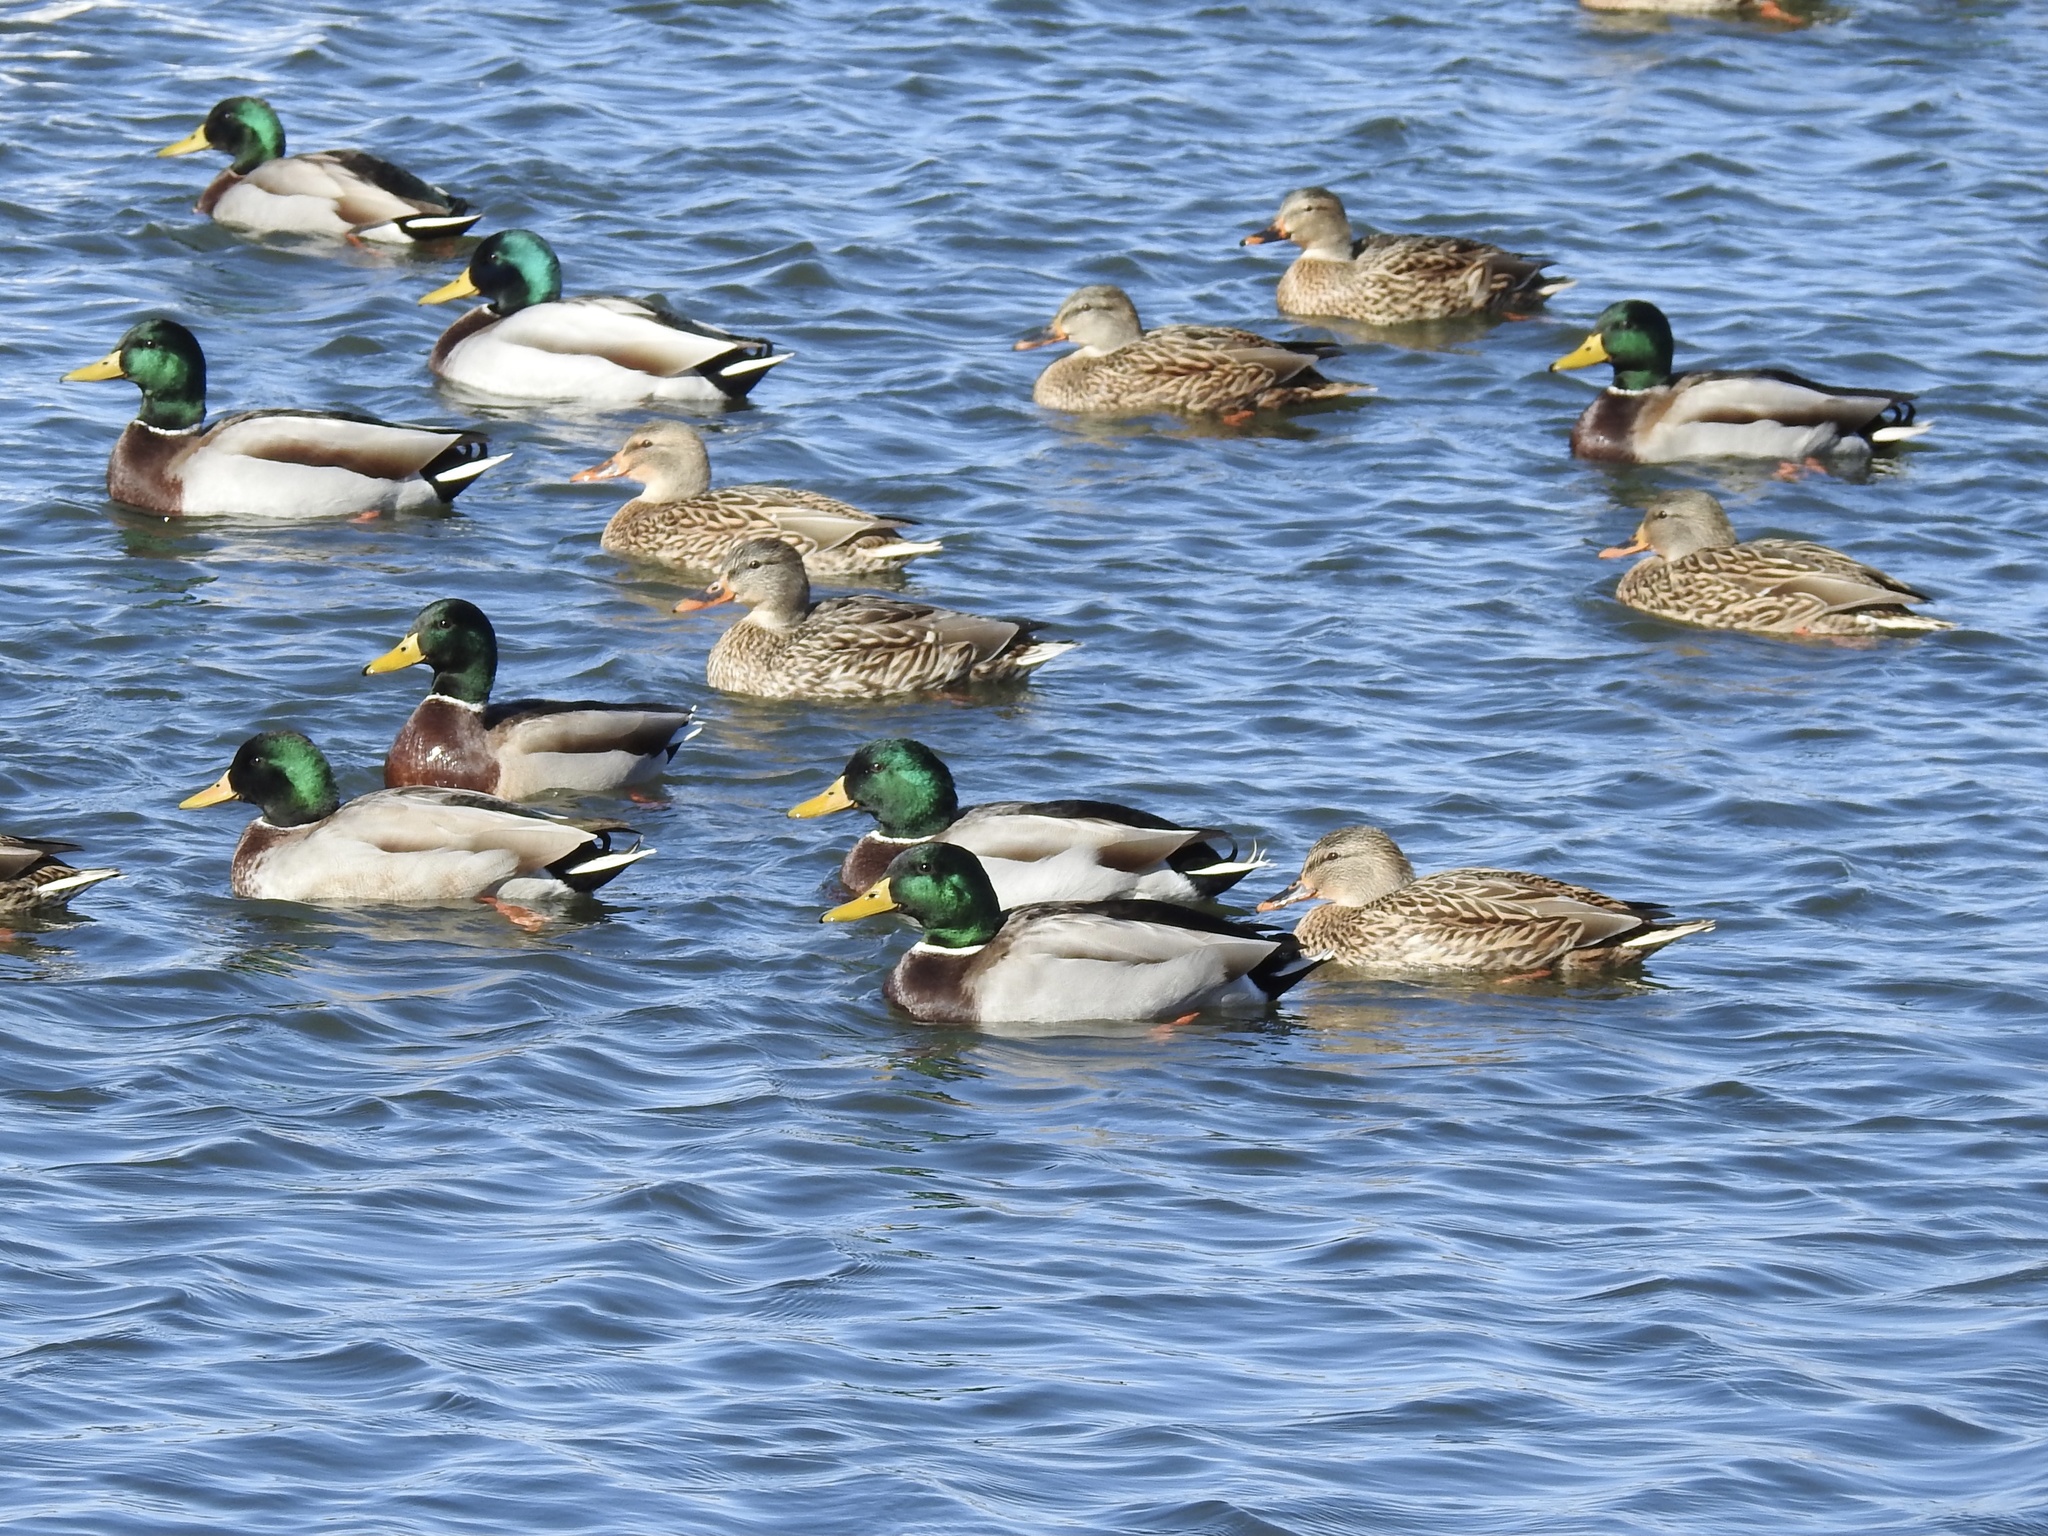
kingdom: Animalia
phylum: Chordata
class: Aves
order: Anseriformes
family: Anatidae
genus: Anas
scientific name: Anas platyrhynchos
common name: Mallard
